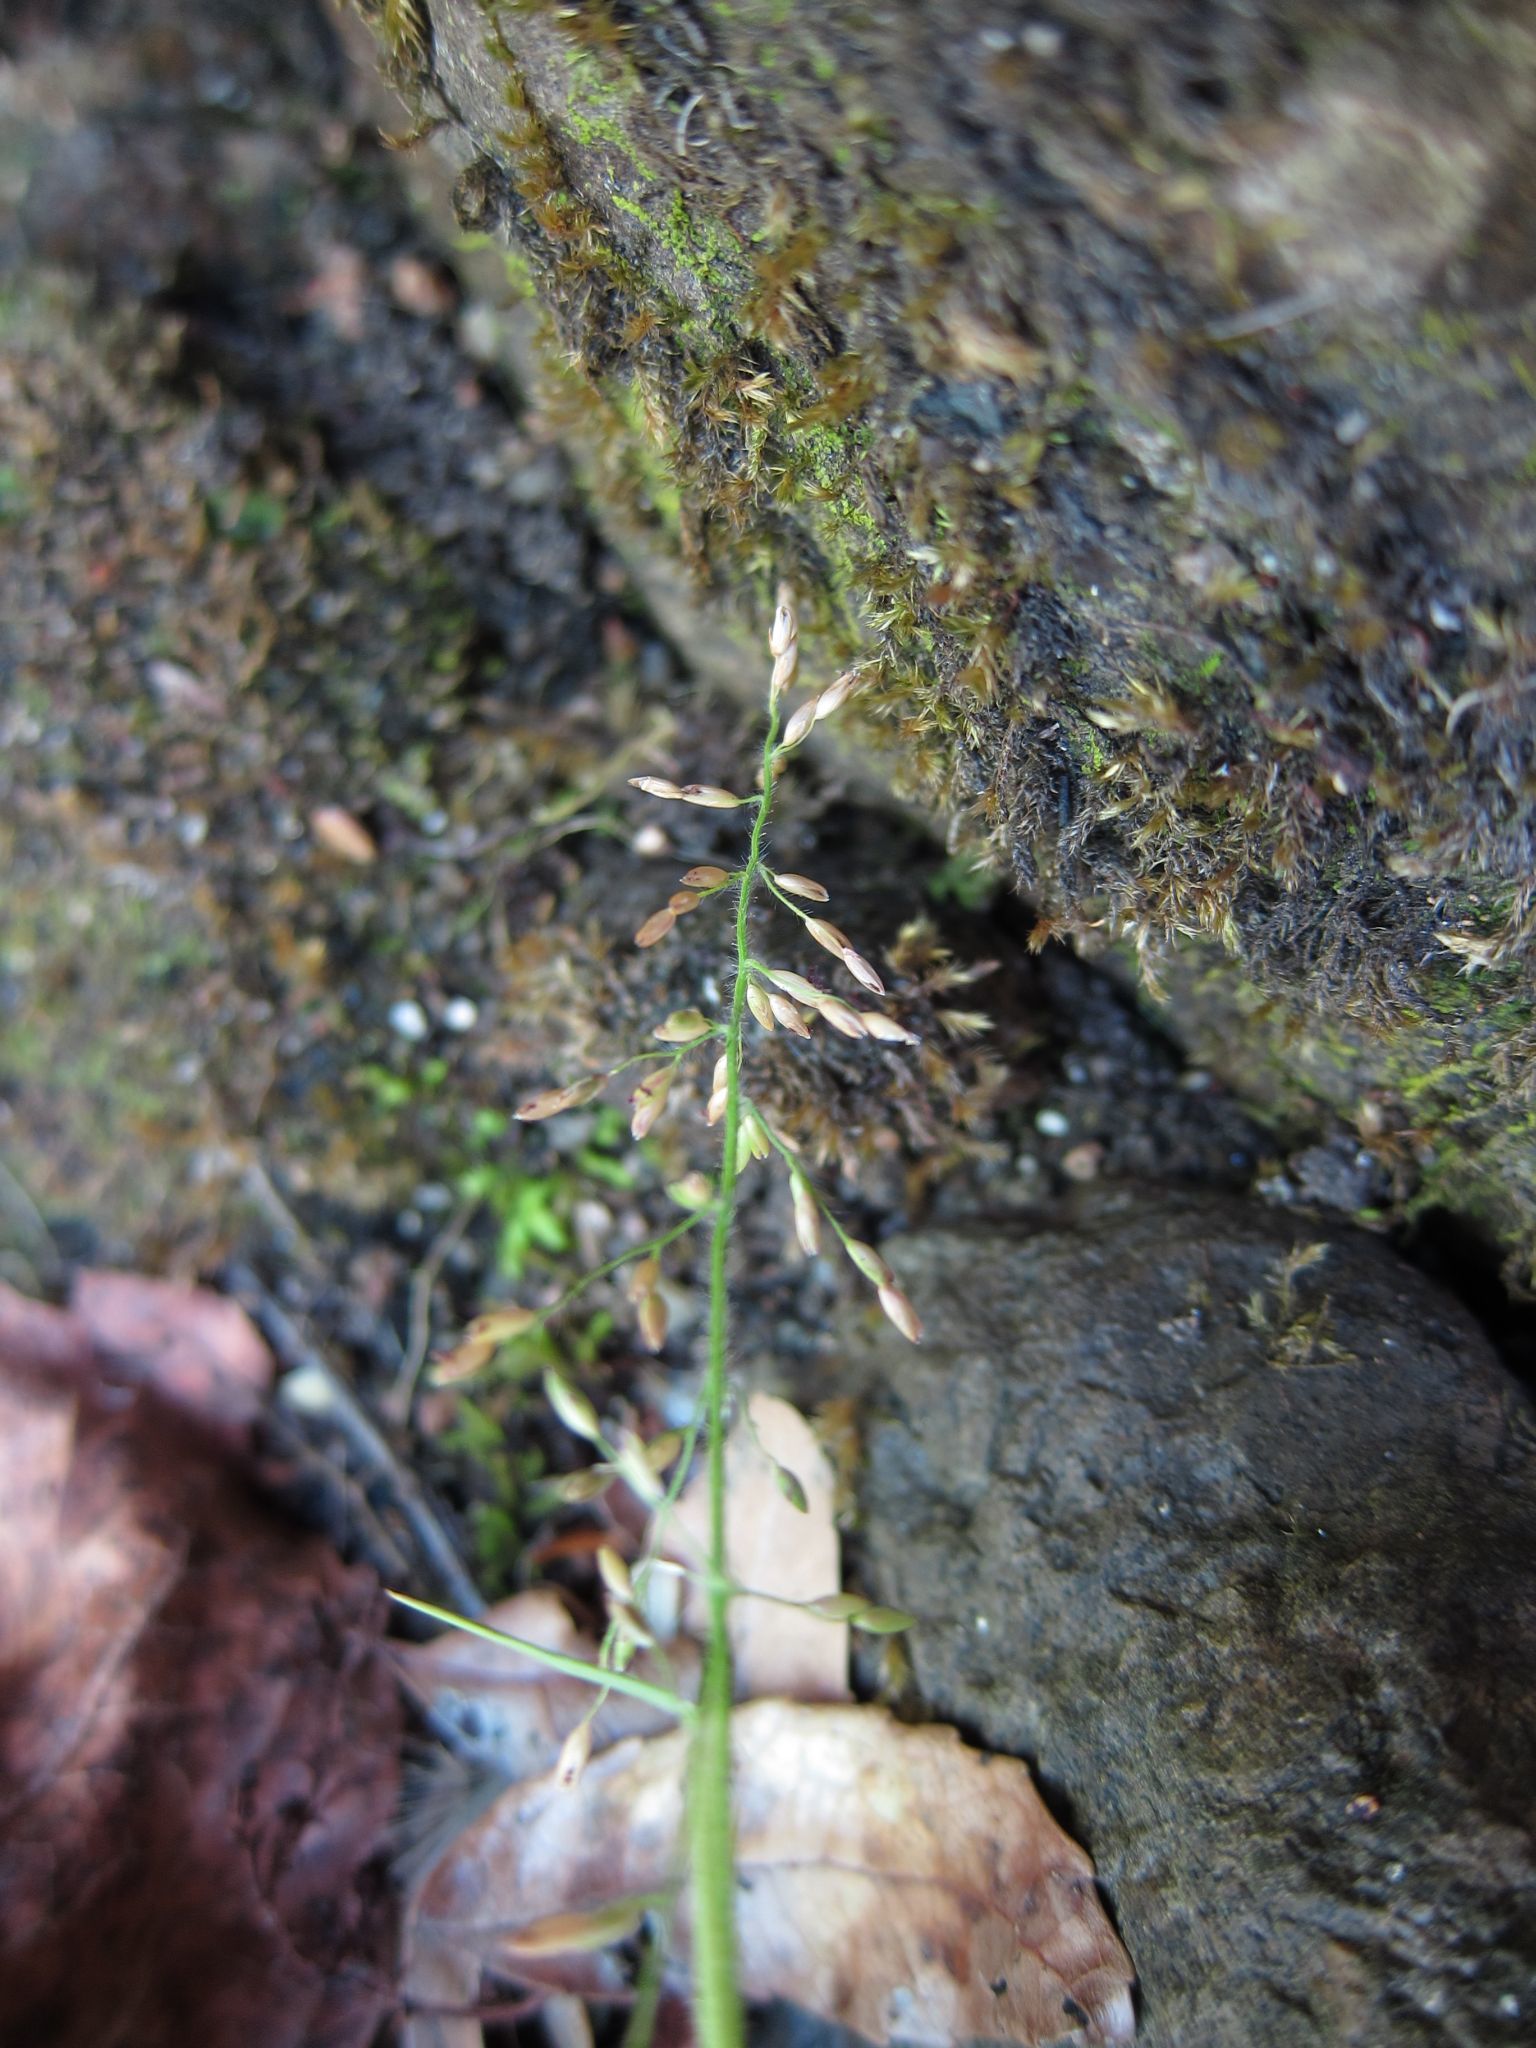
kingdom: Plantae
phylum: Tracheophyta
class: Liliopsida
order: Poales
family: Poaceae
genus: Adenochloa
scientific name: Adenochloa hymeniochila
